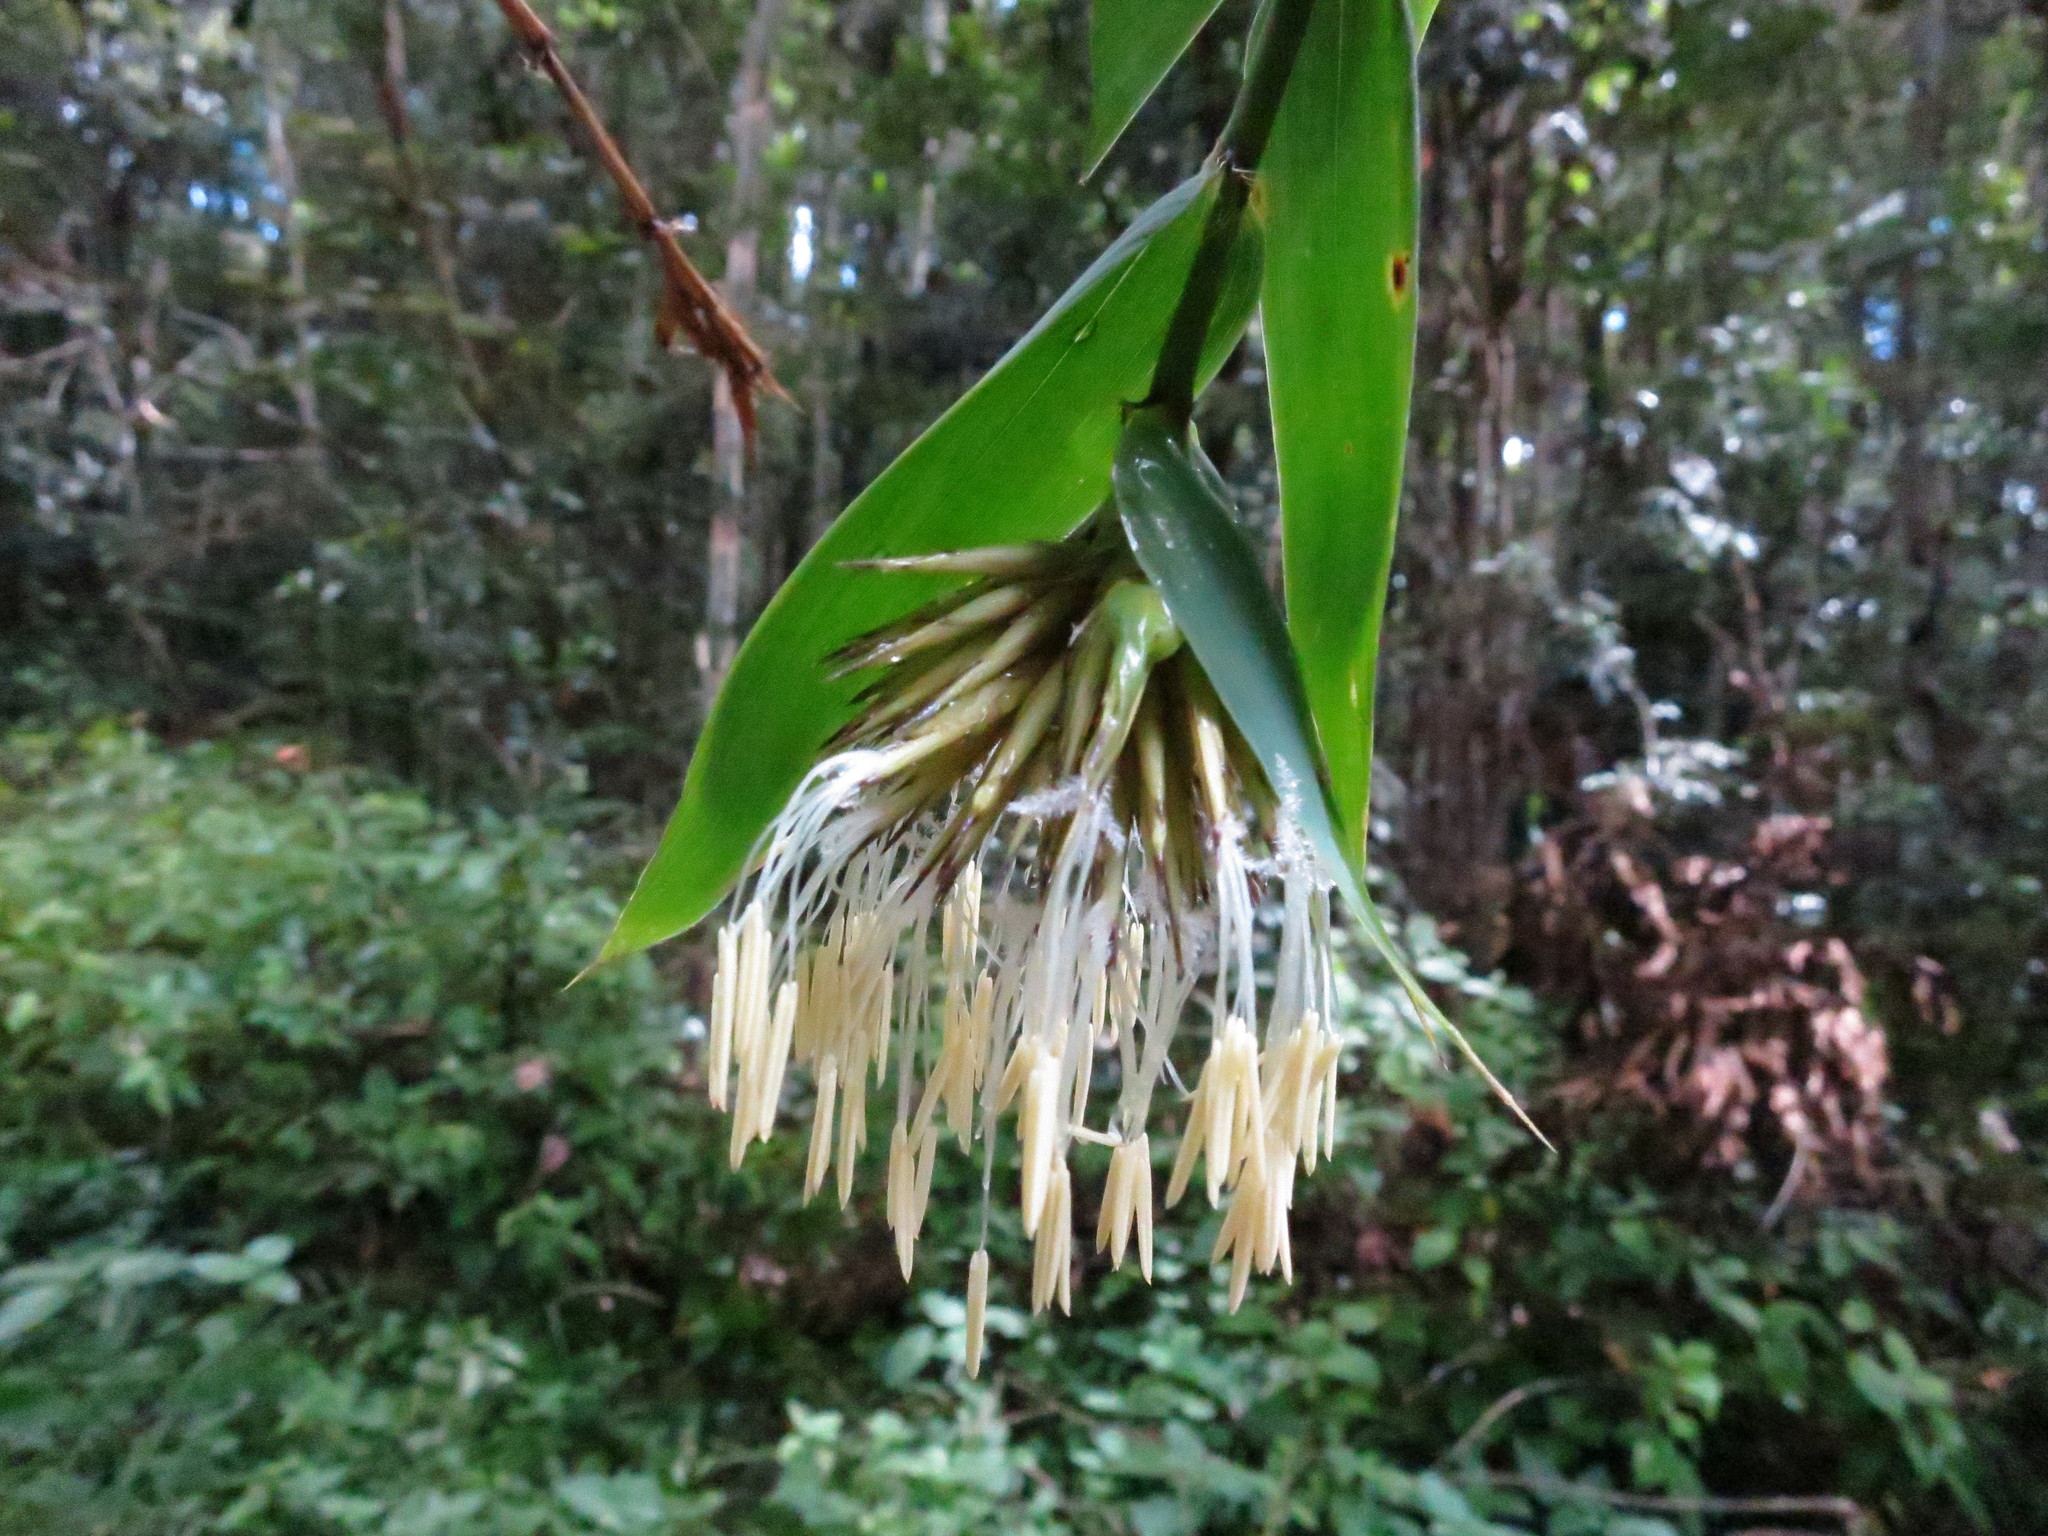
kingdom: Plantae
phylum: Tracheophyta
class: Liliopsida
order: Poales
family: Poaceae
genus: Cathariostachys
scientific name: Cathariostachys madagascariensis
